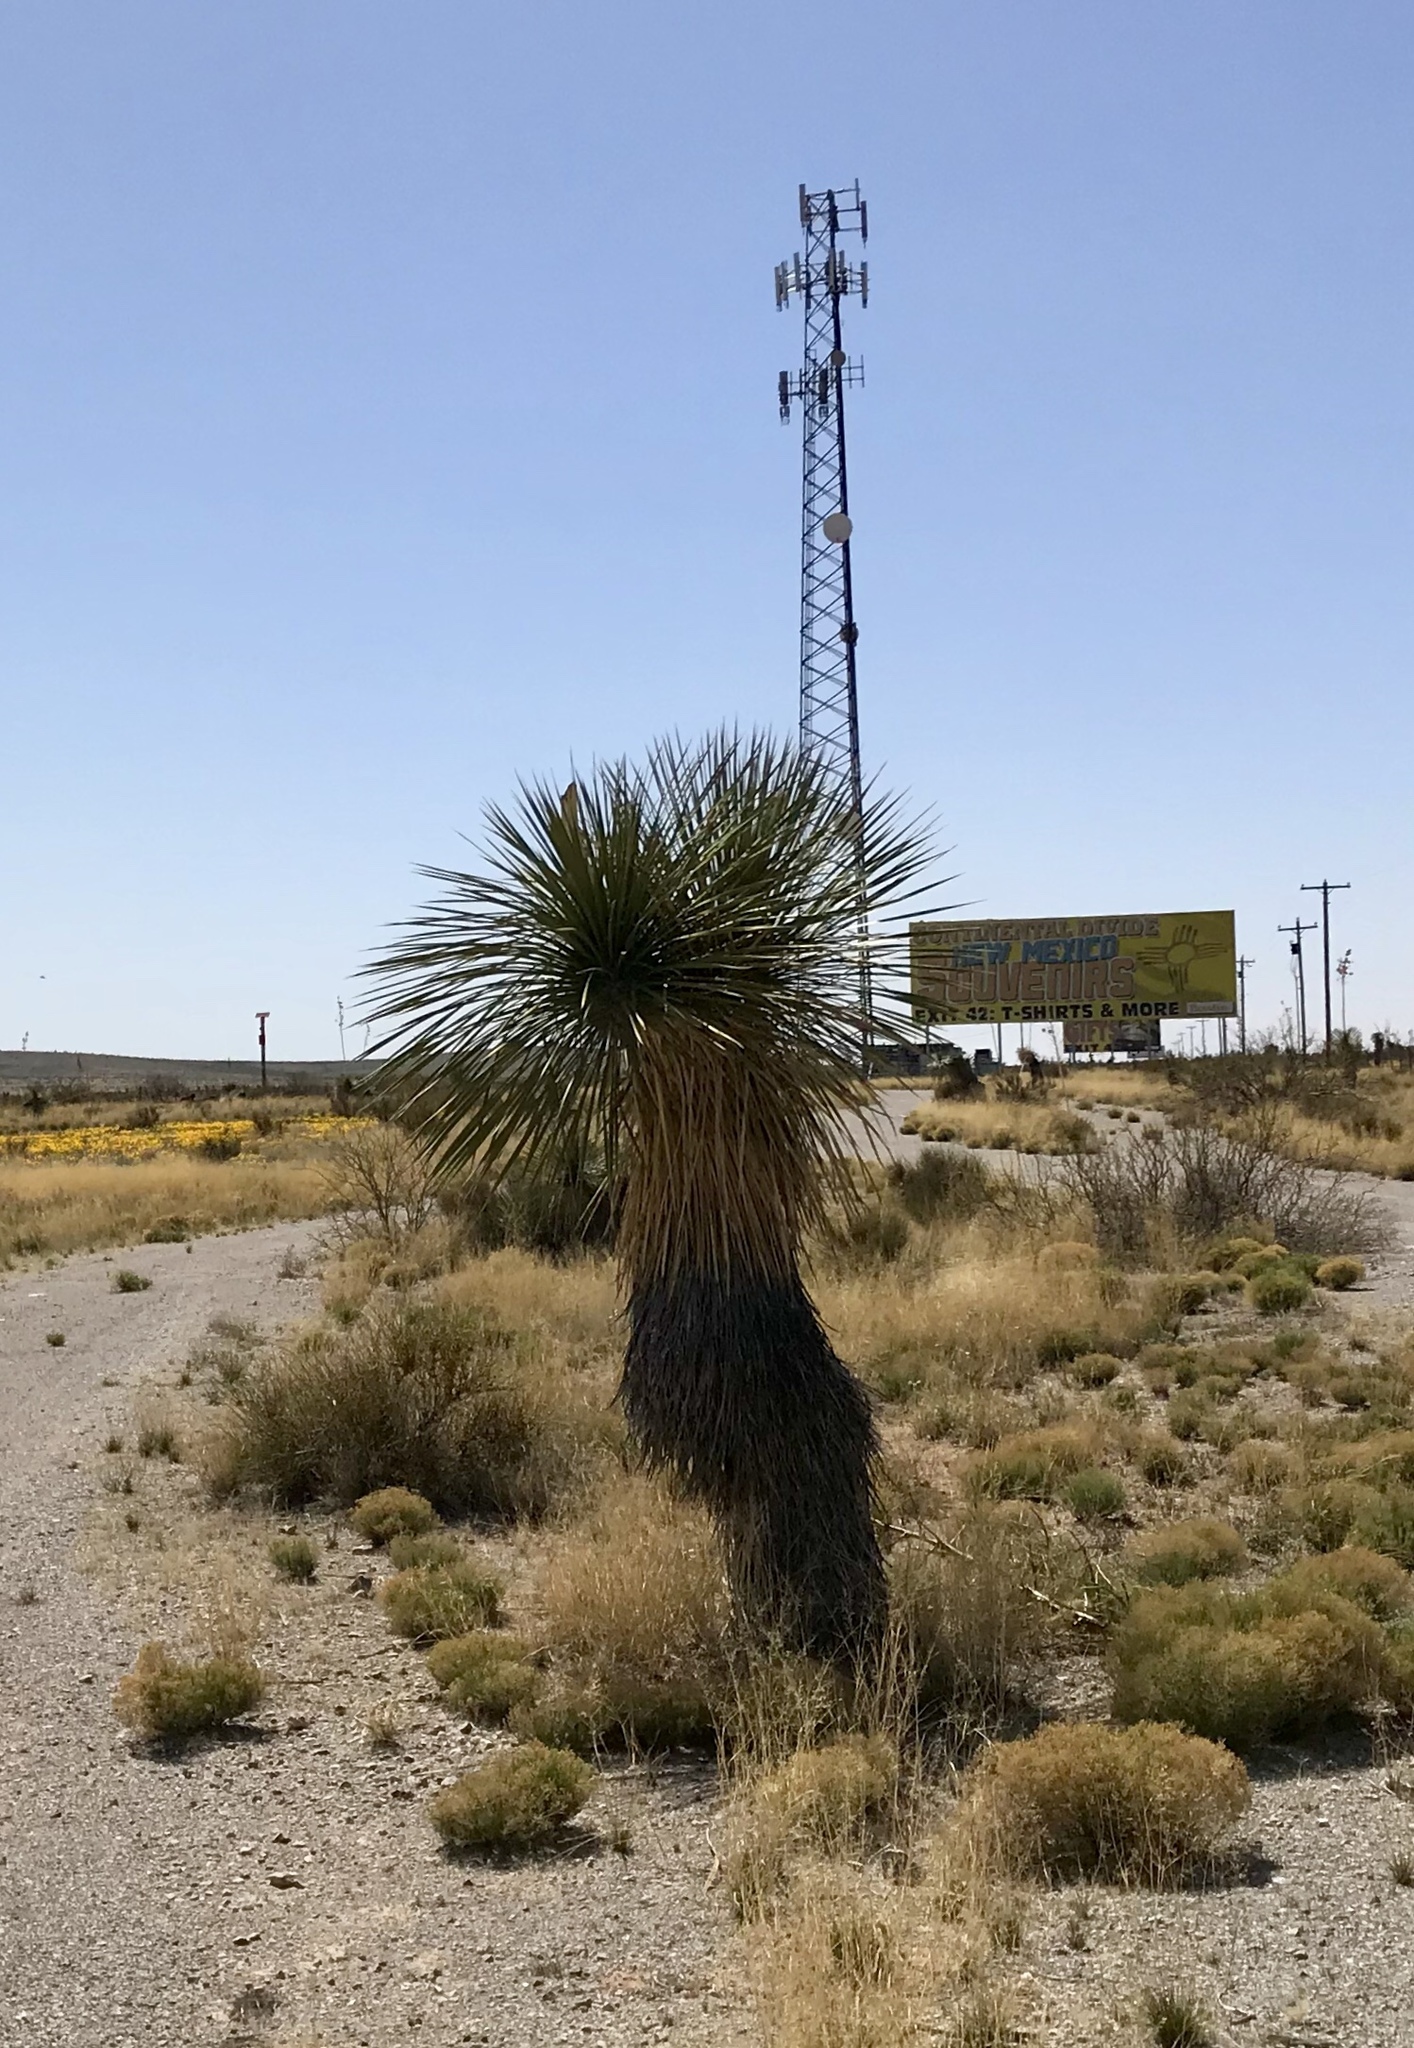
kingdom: Plantae
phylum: Tracheophyta
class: Liliopsida
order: Asparagales
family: Asparagaceae
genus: Yucca
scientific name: Yucca elata
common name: Palmella
